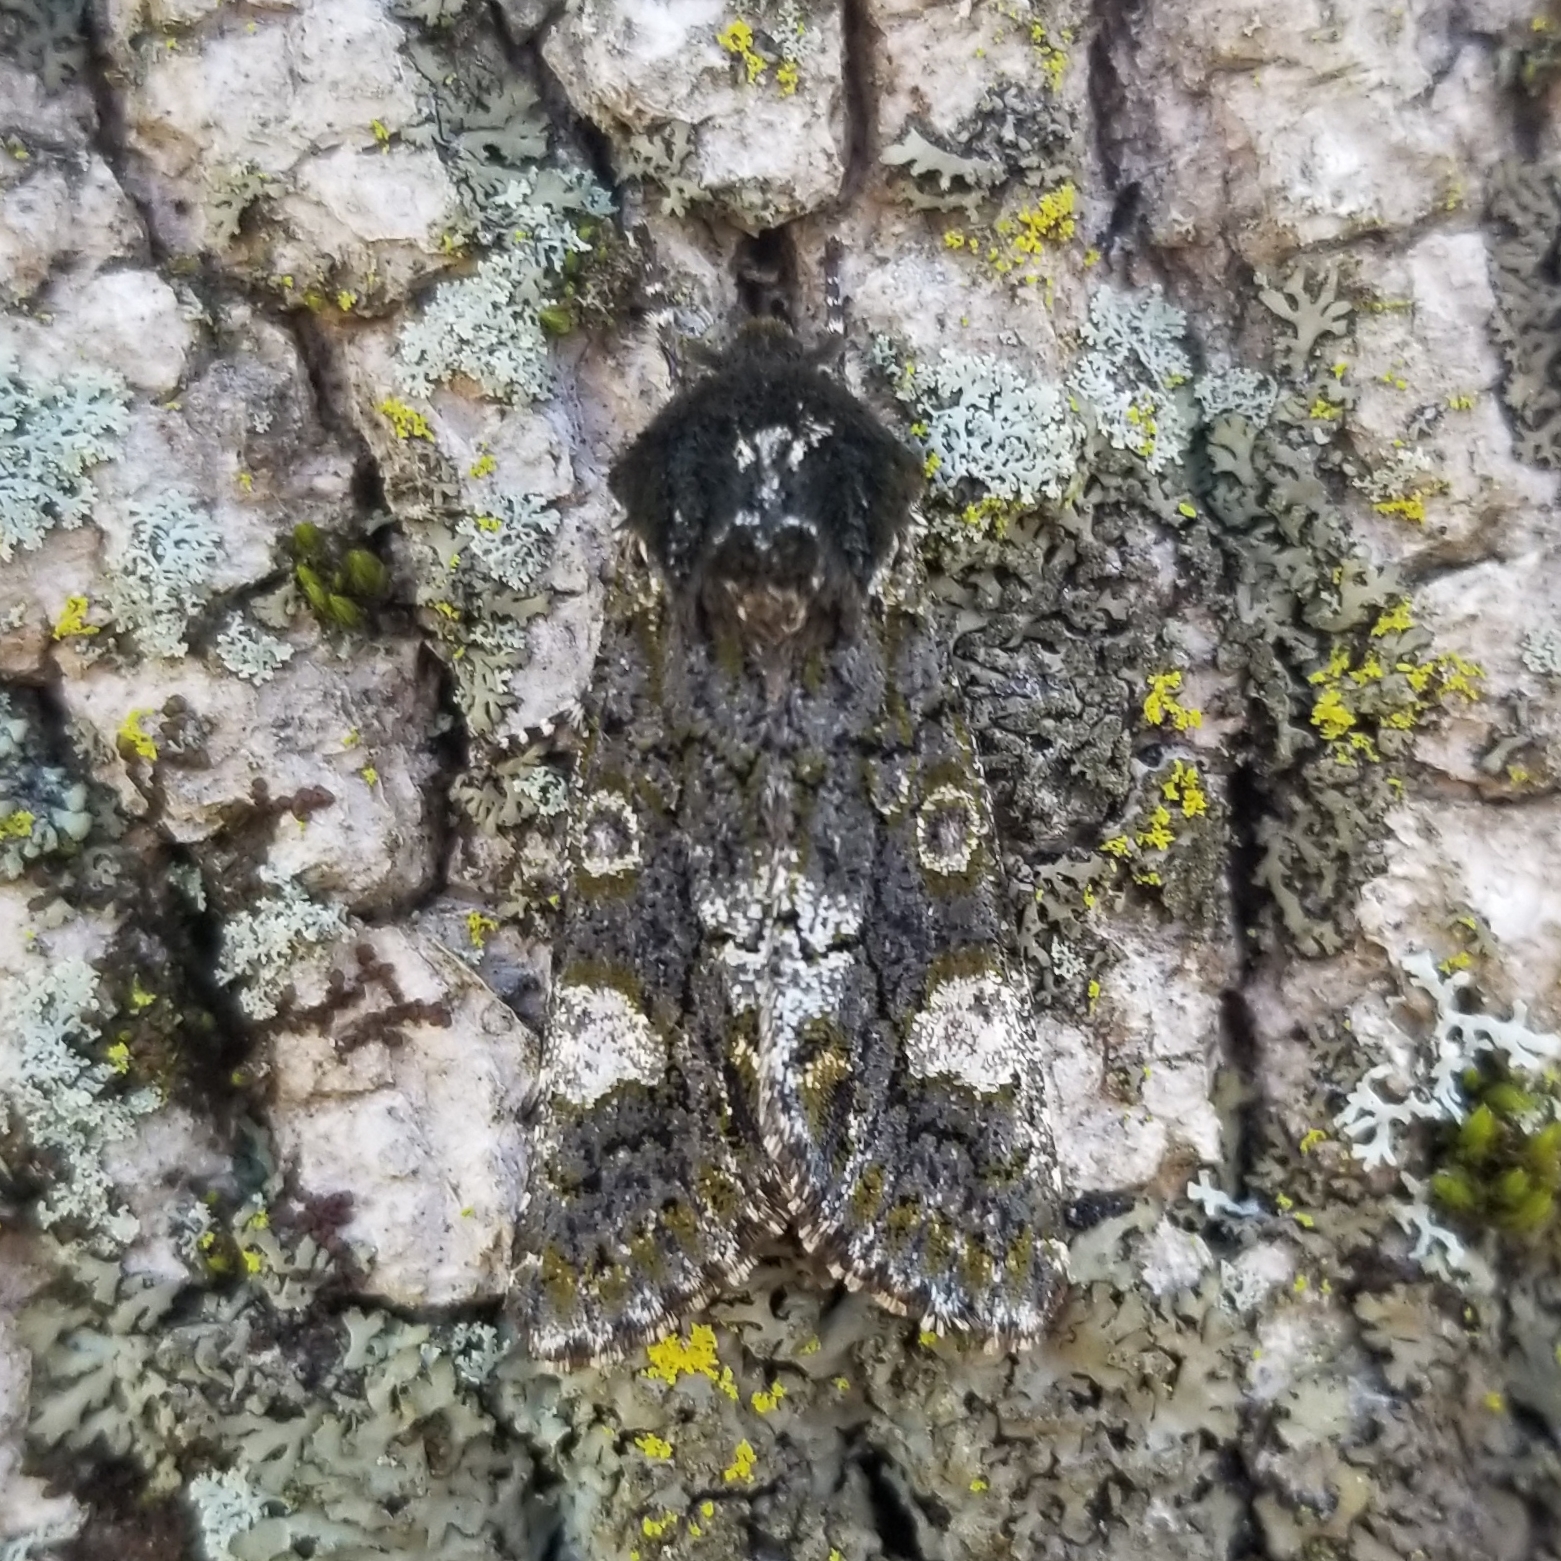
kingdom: Animalia
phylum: Arthropoda
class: Insecta
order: Lepidoptera
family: Noctuidae
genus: Psaphida
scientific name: Psaphida grotei
